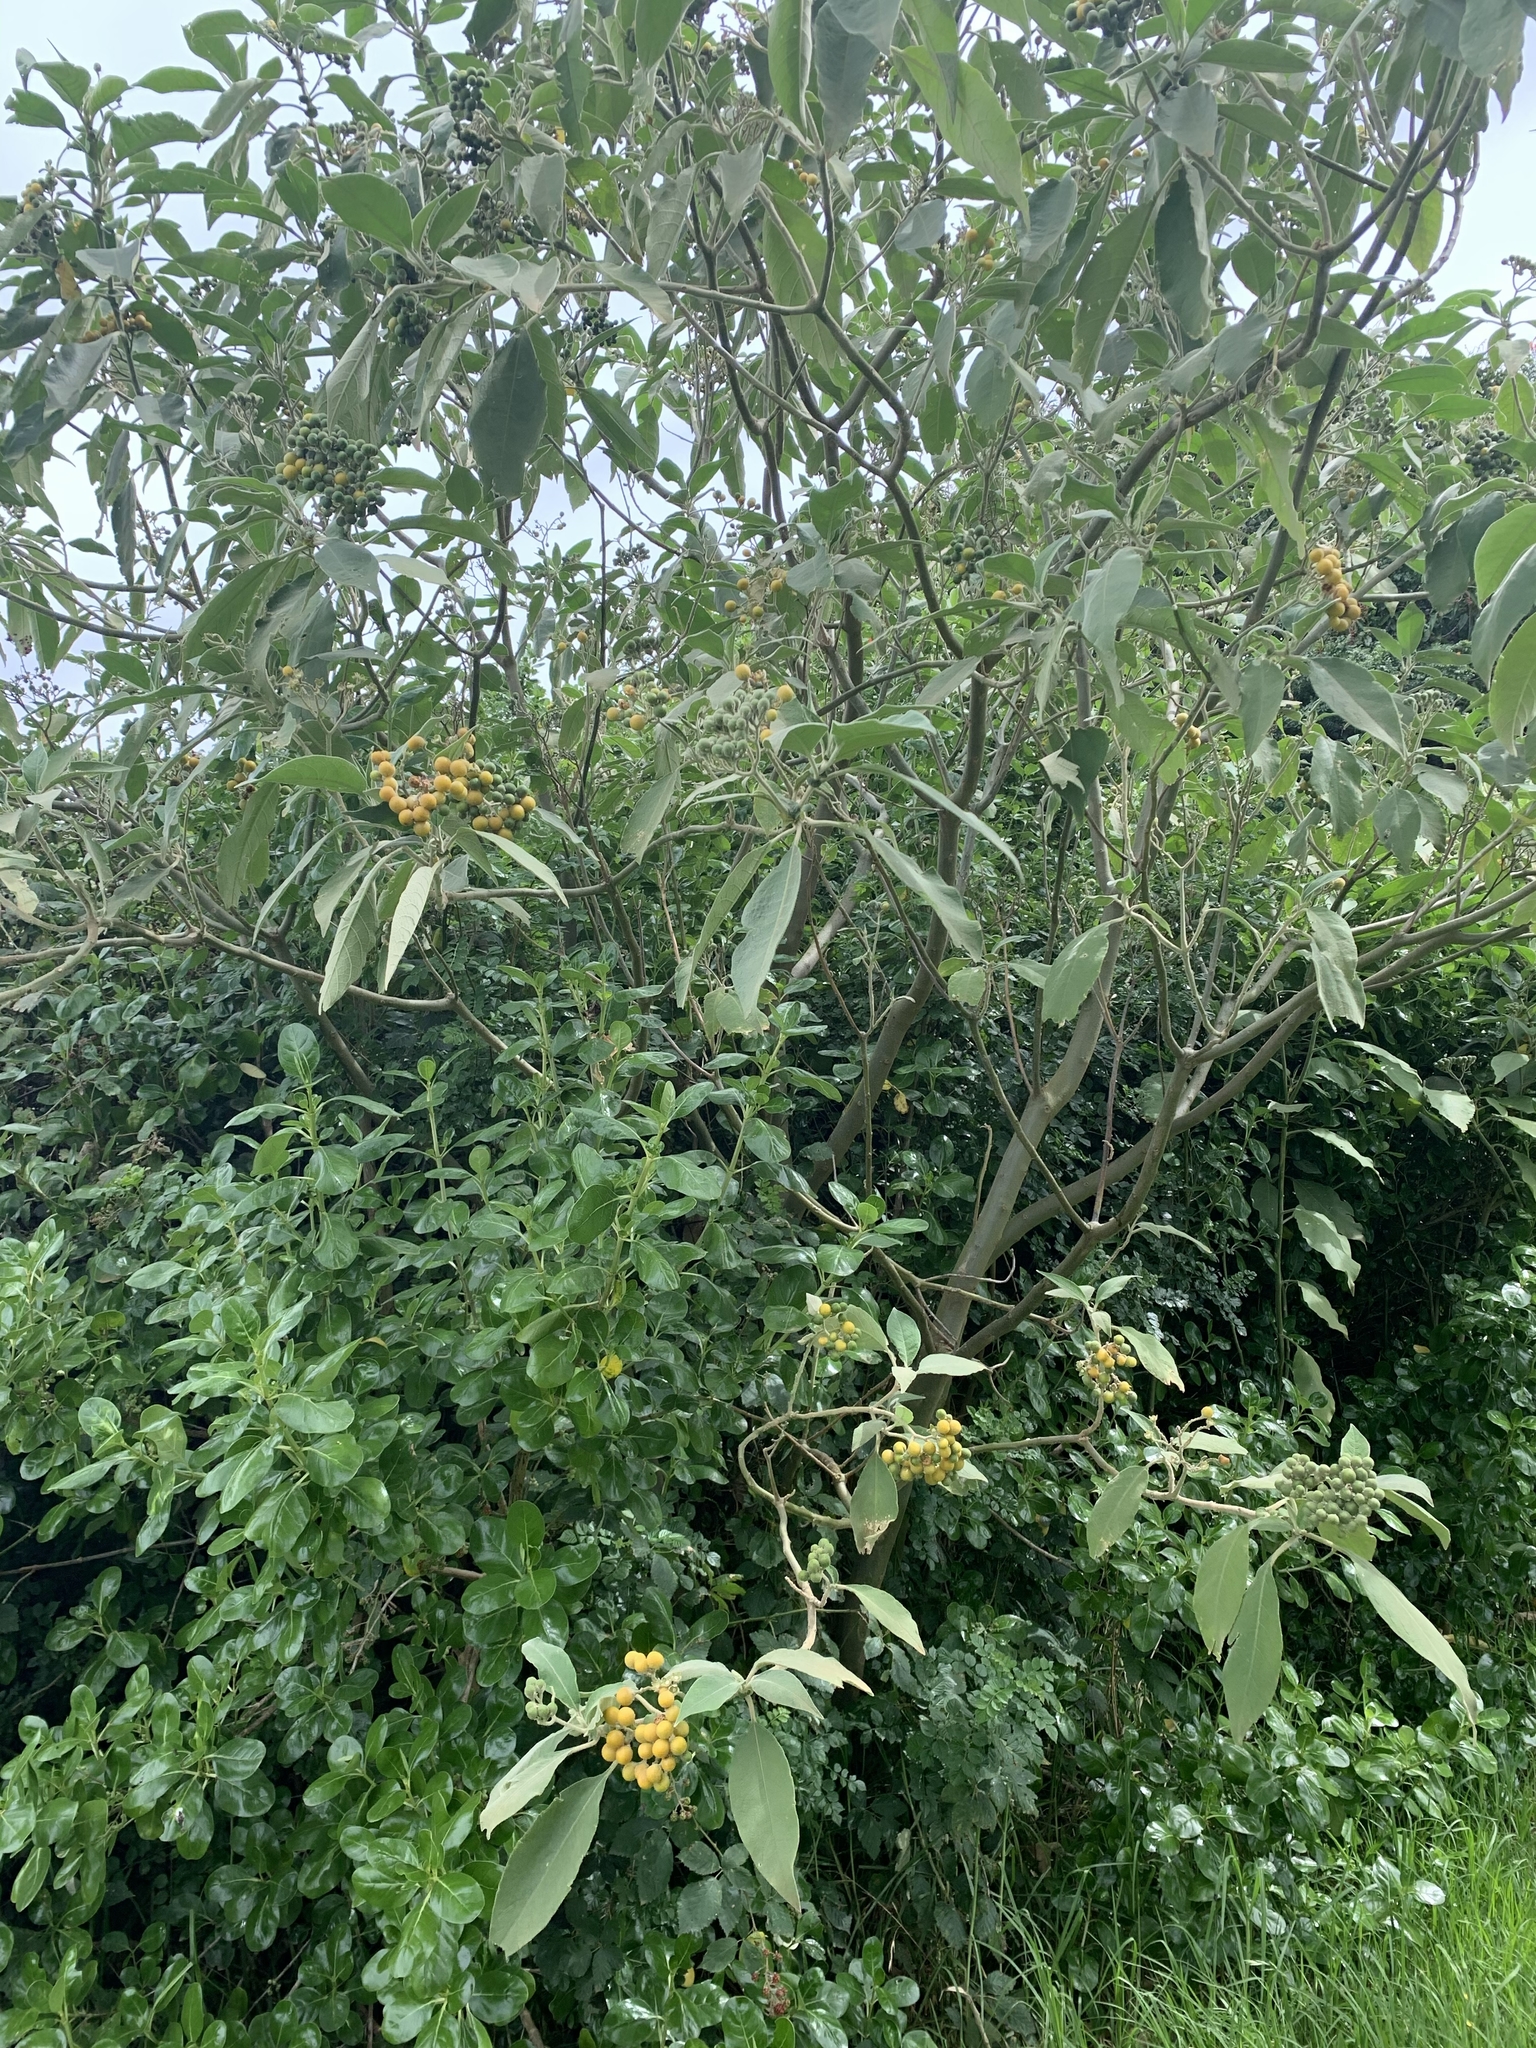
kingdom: Plantae
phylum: Tracheophyta
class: Magnoliopsida
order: Solanales
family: Solanaceae
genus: Solanum
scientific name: Solanum mauritianum
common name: Earleaf nightshade
